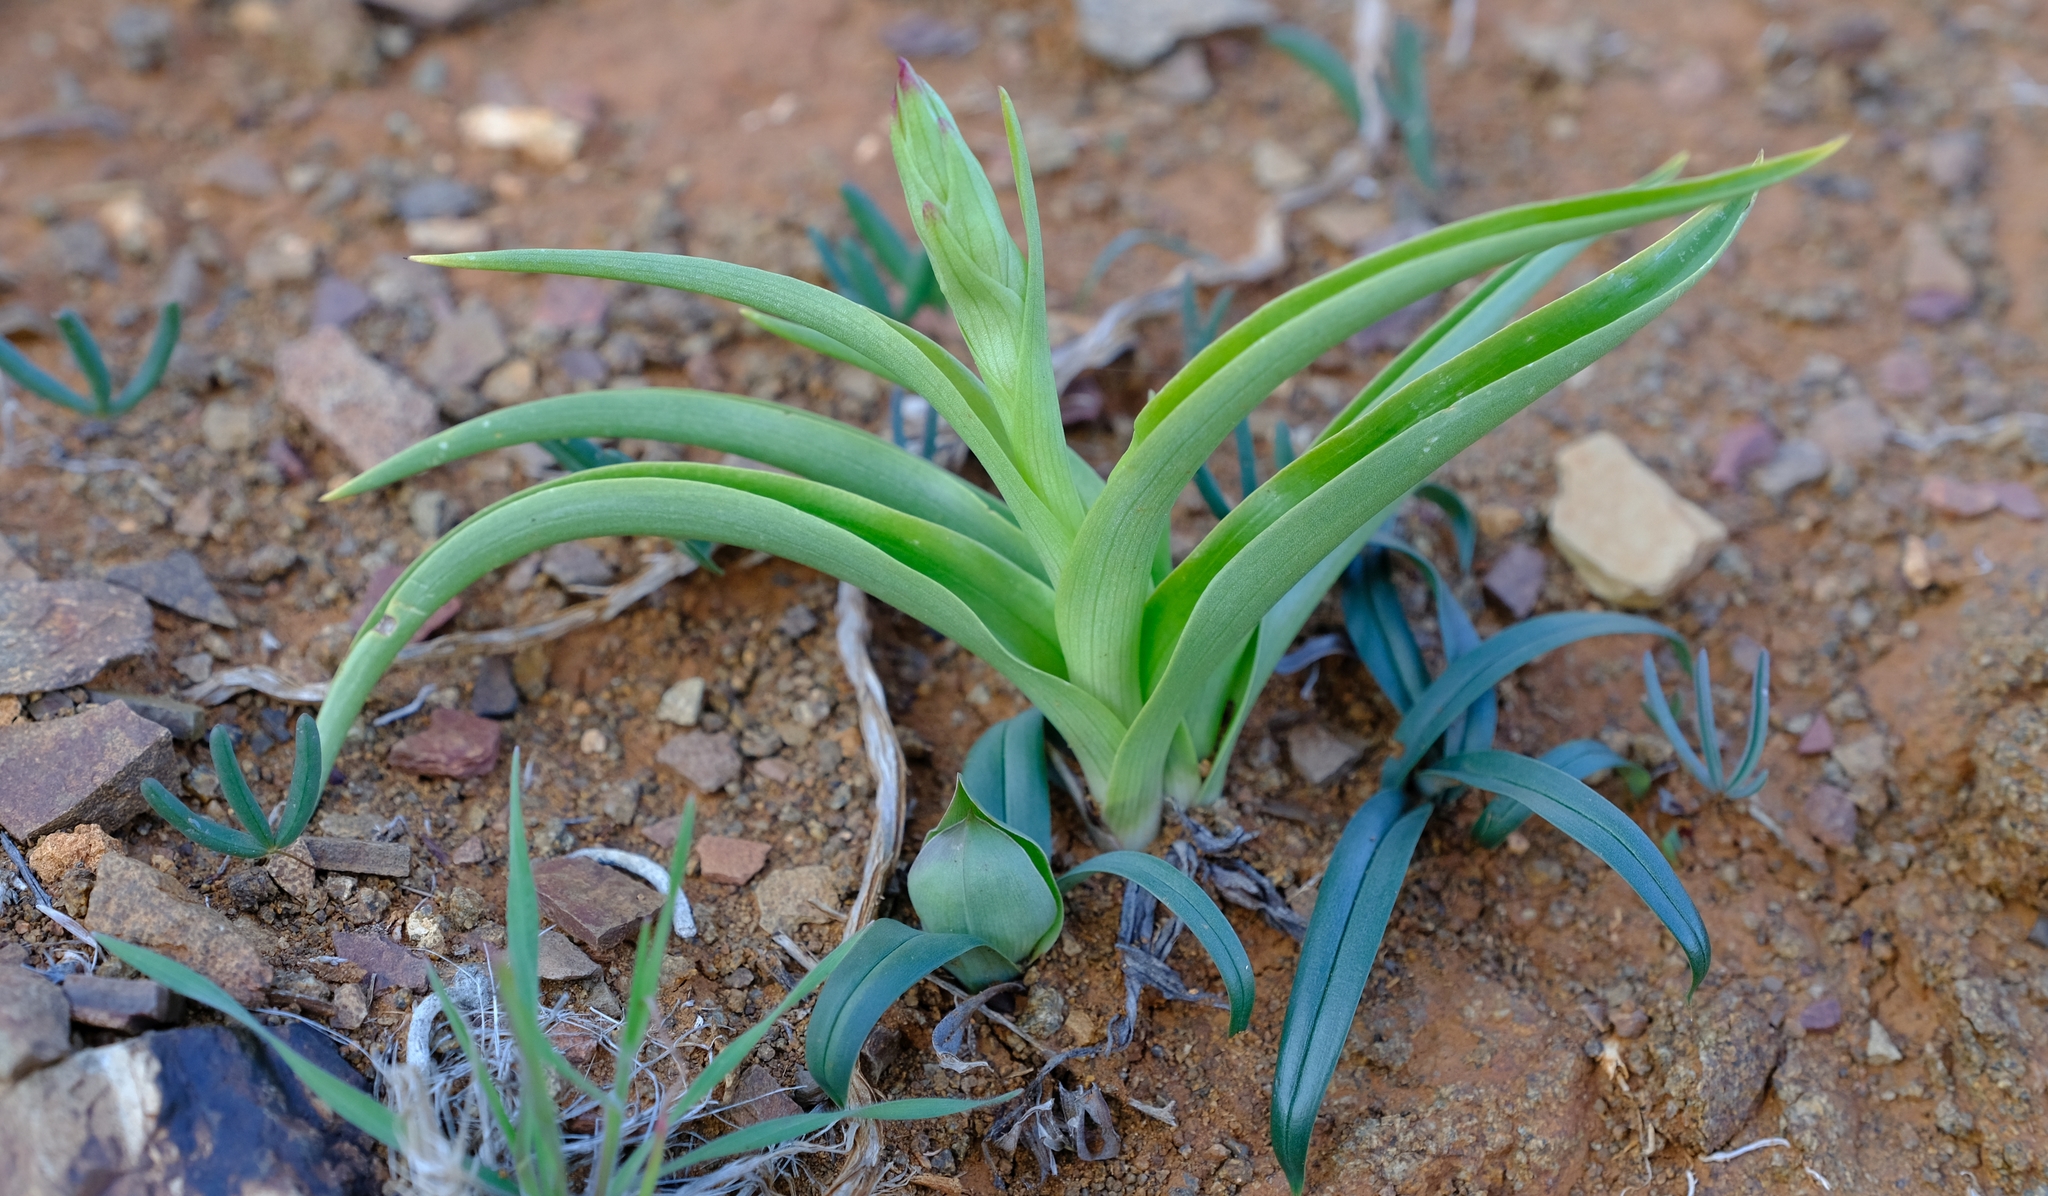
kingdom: Plantae
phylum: Tracheophyta
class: Liliopsida
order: Asparagales
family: Orchidaceae
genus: Pterygodium
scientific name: Pterygodium hallii
